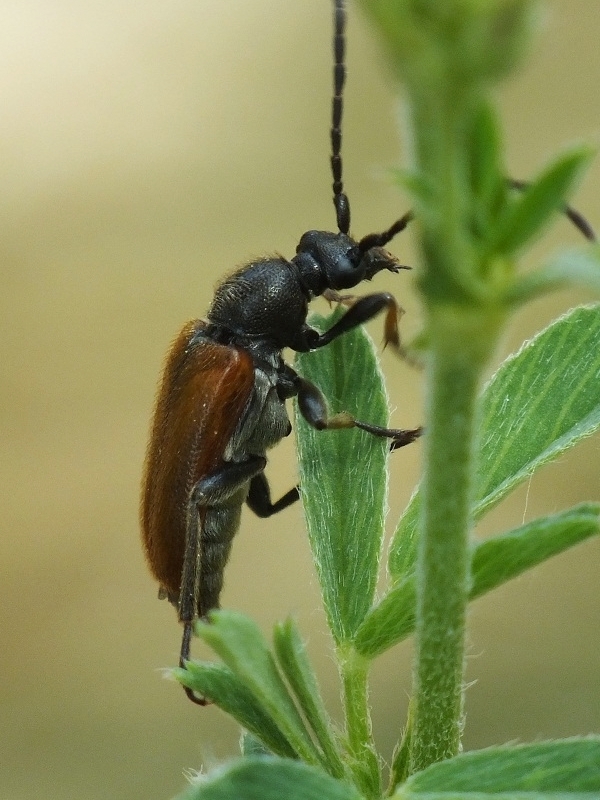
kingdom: Animalia
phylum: Arthropoda
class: Insecta
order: Coleoptera
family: Cerambycidae
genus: Pseudovadonia
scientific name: Pseudovadonia livida
